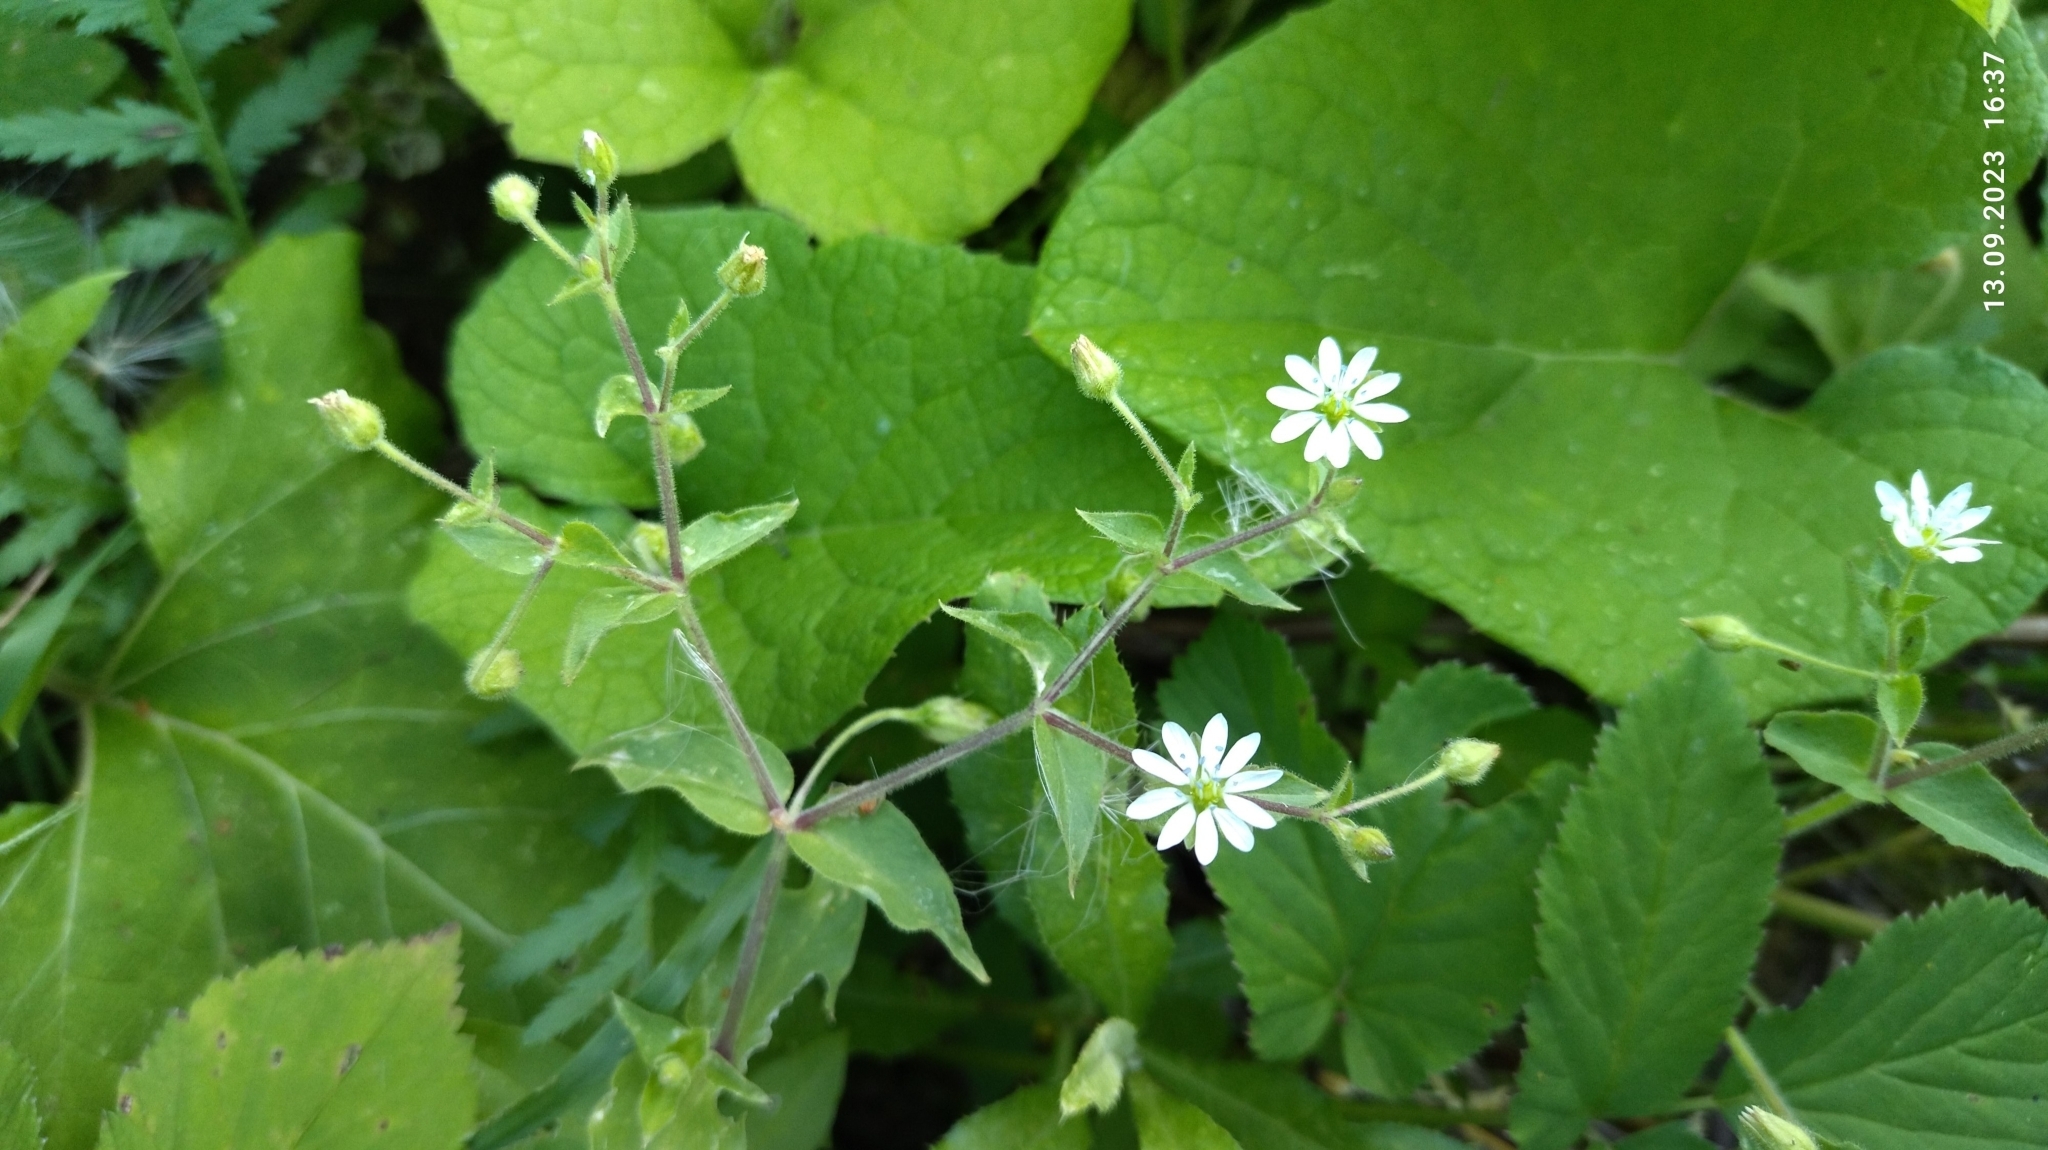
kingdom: Plantae
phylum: Tracheophyta
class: Magnoliopsida
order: Caryophyllales
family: Caryophyllaceae
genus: Stellaria
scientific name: Stellaria aquatica
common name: Water chickweed
